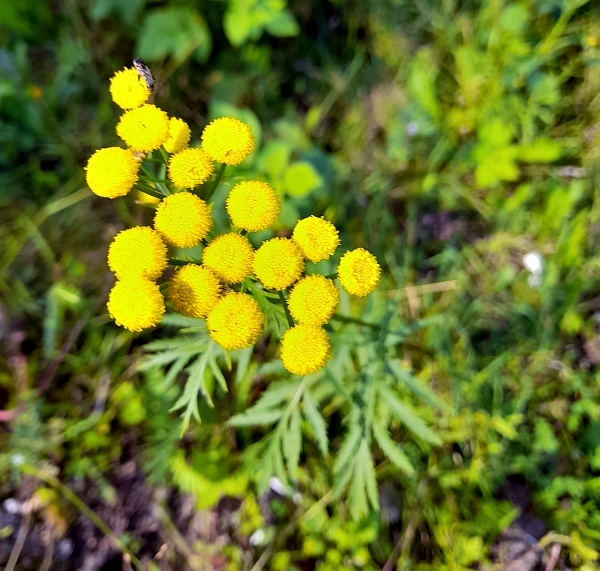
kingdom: Plantae
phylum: Tracheophyta
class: Magnoliopsida
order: Asterales
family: Asteraceae
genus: Tanacetum
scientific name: Tanacetum vulgare
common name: Common tansy
